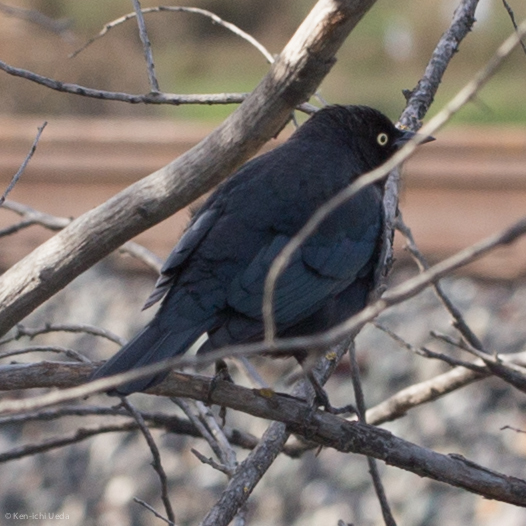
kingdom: Animalia
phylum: Chordata
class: Aves
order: Passeriformes
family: Icteridae
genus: Euphagus
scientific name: Euphagus cyanocephalus
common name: Brewer's blackbird
